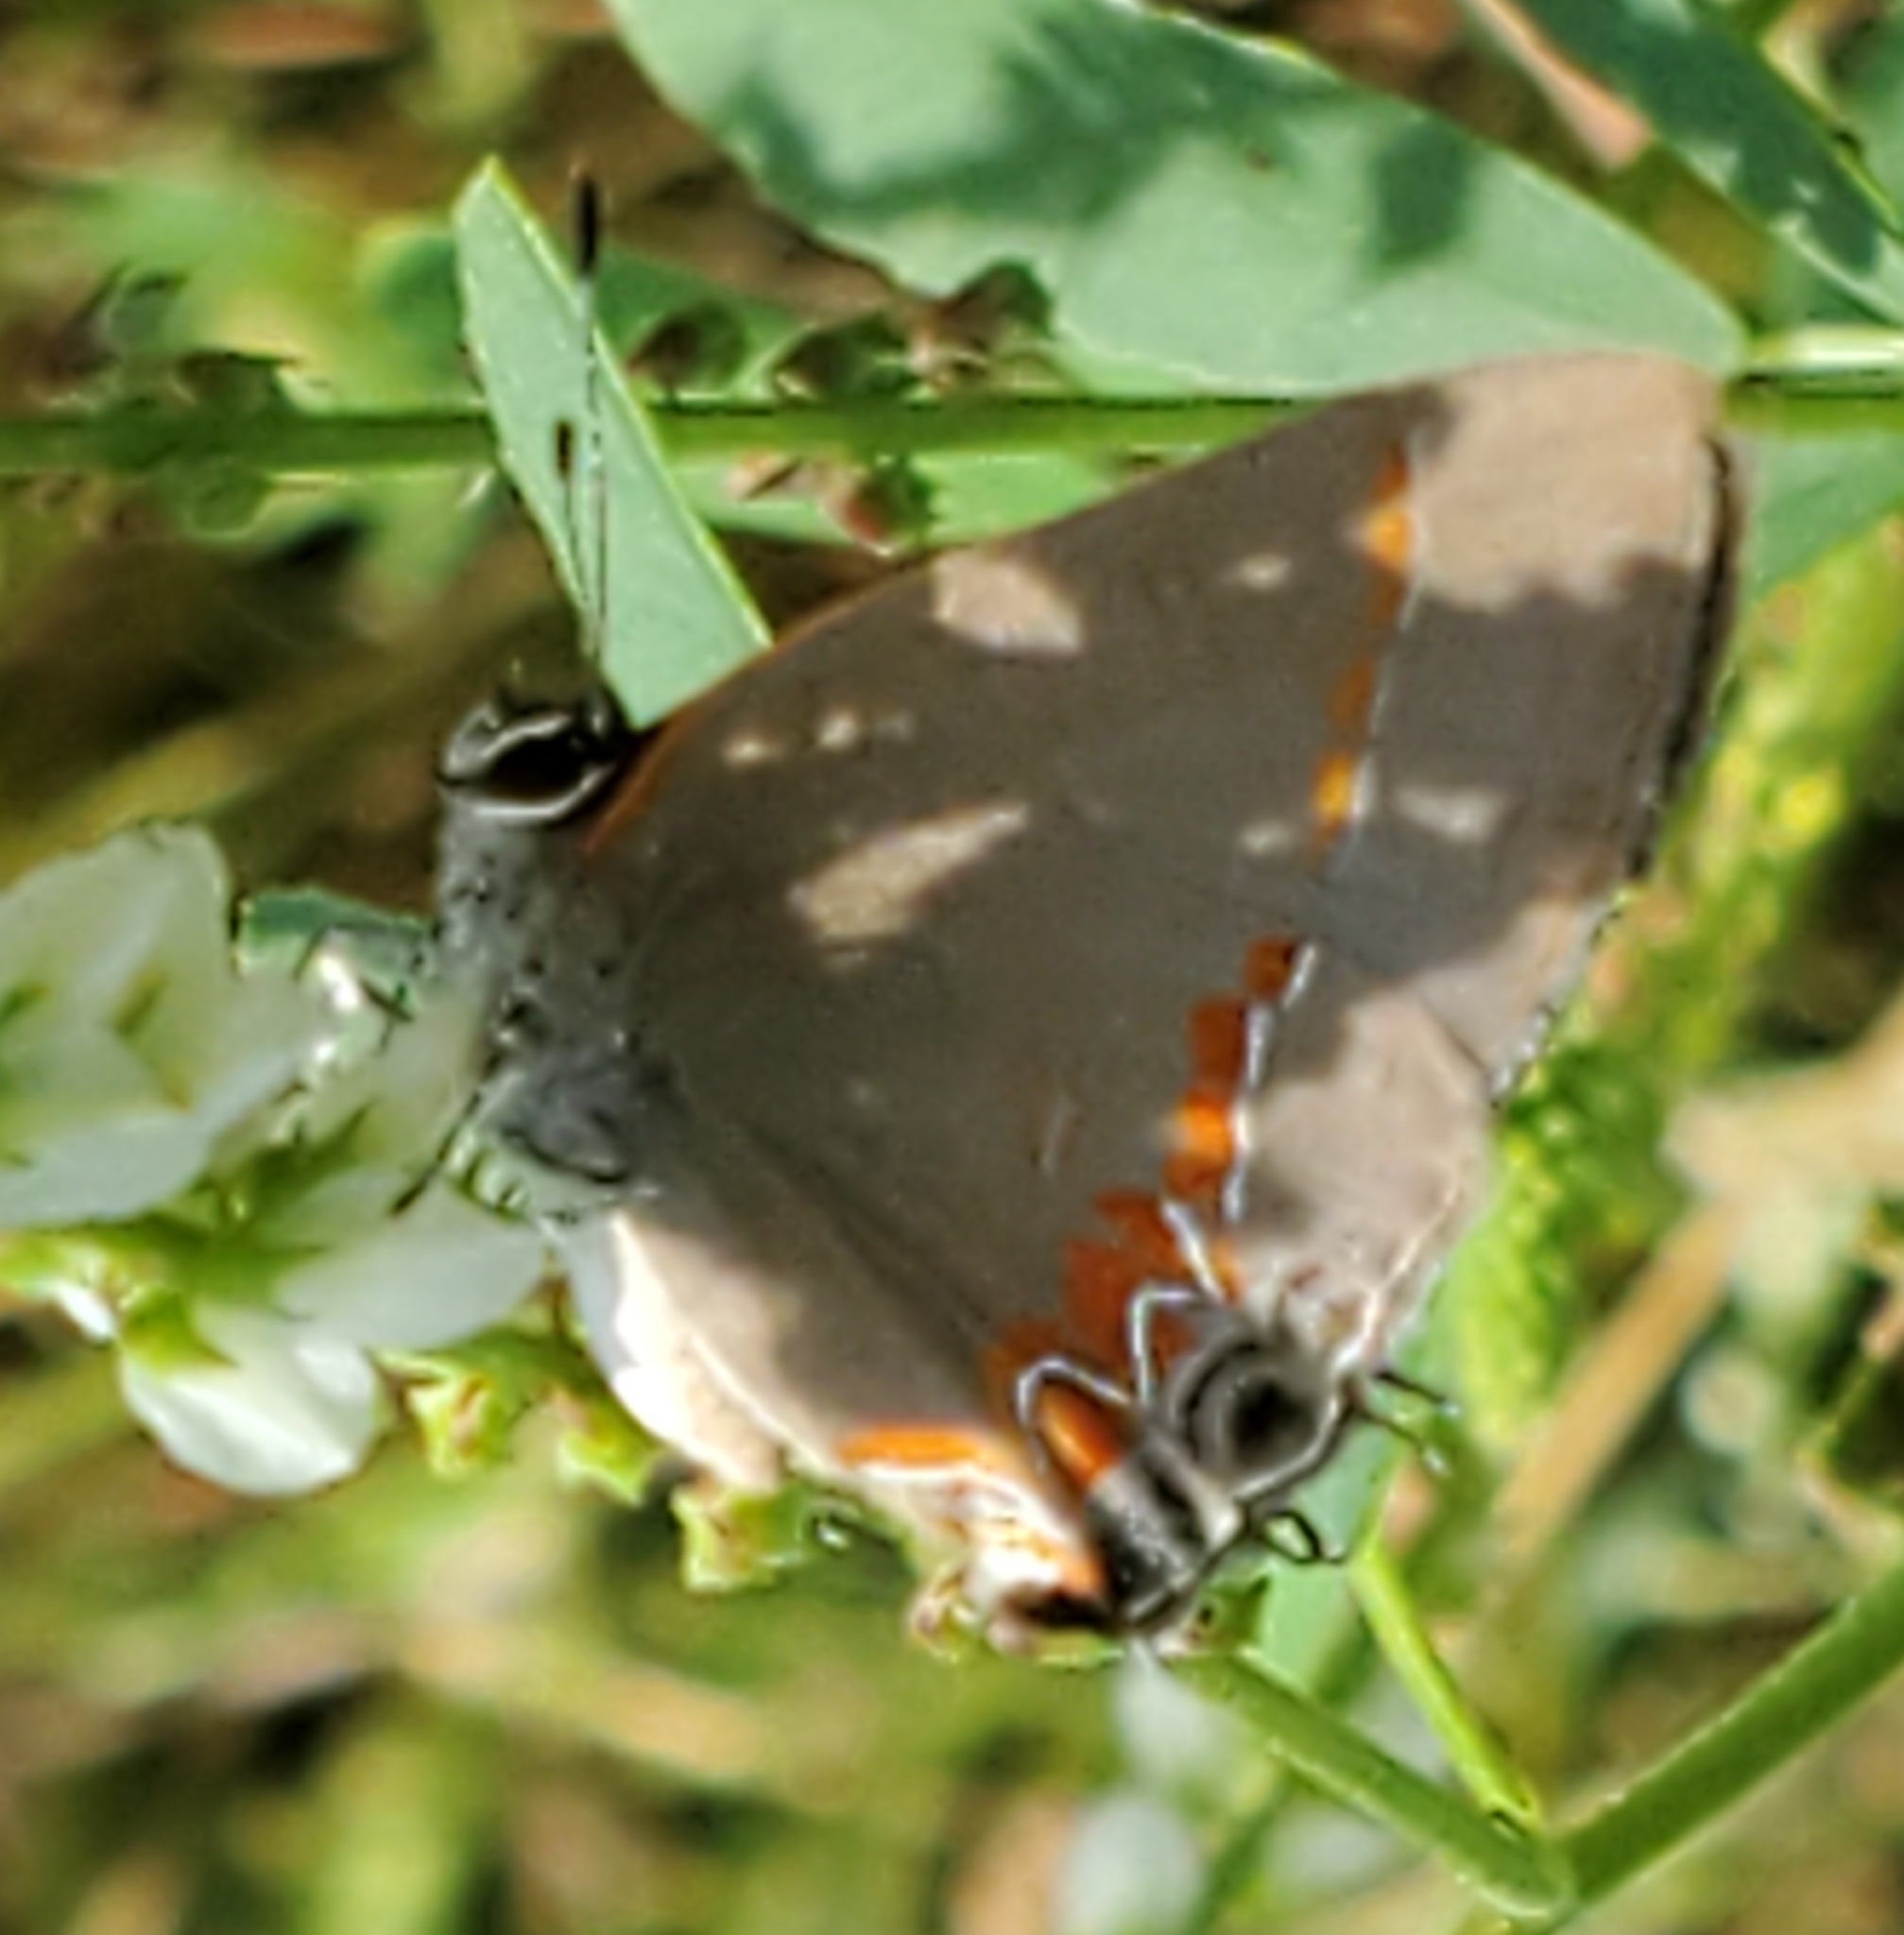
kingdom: Animalia
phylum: Arthropoda
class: Insecta
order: Lepidoptera
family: Lycaenidae
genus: Calycopis
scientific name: Calycopis cecrops
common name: Red-banded hairstreak
